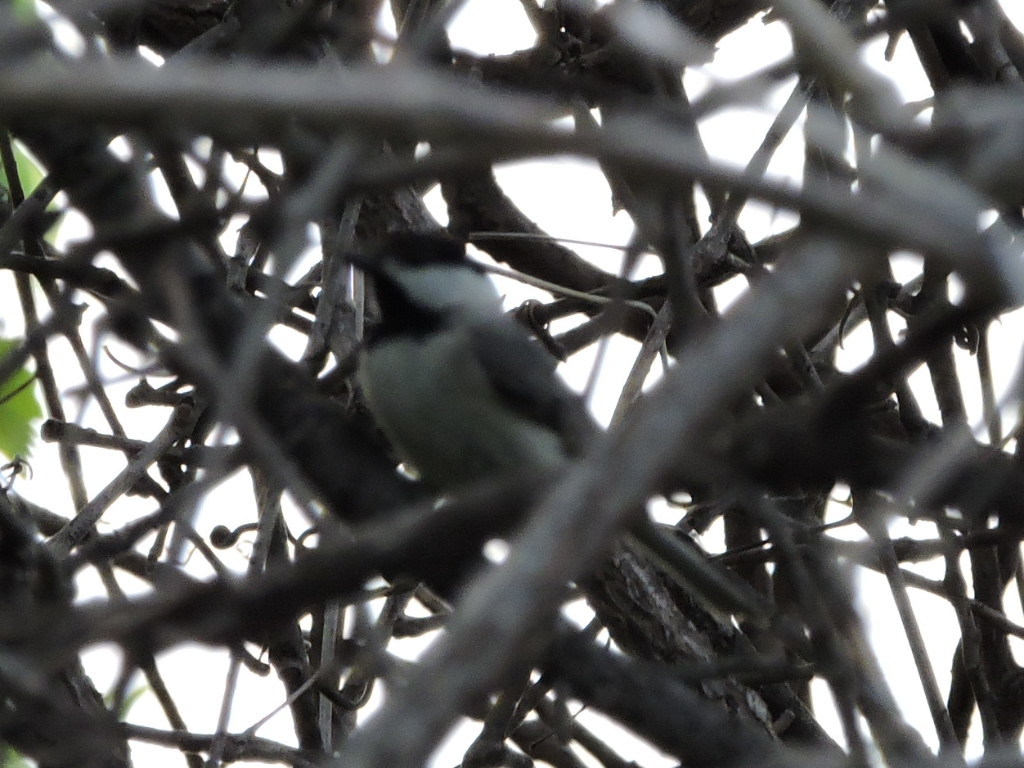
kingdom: Animalia
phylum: Chordata
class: Aves
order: Passeriformes
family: Paridae
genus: Poecile
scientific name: Poecile carolinensis
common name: Carolina chickadee
